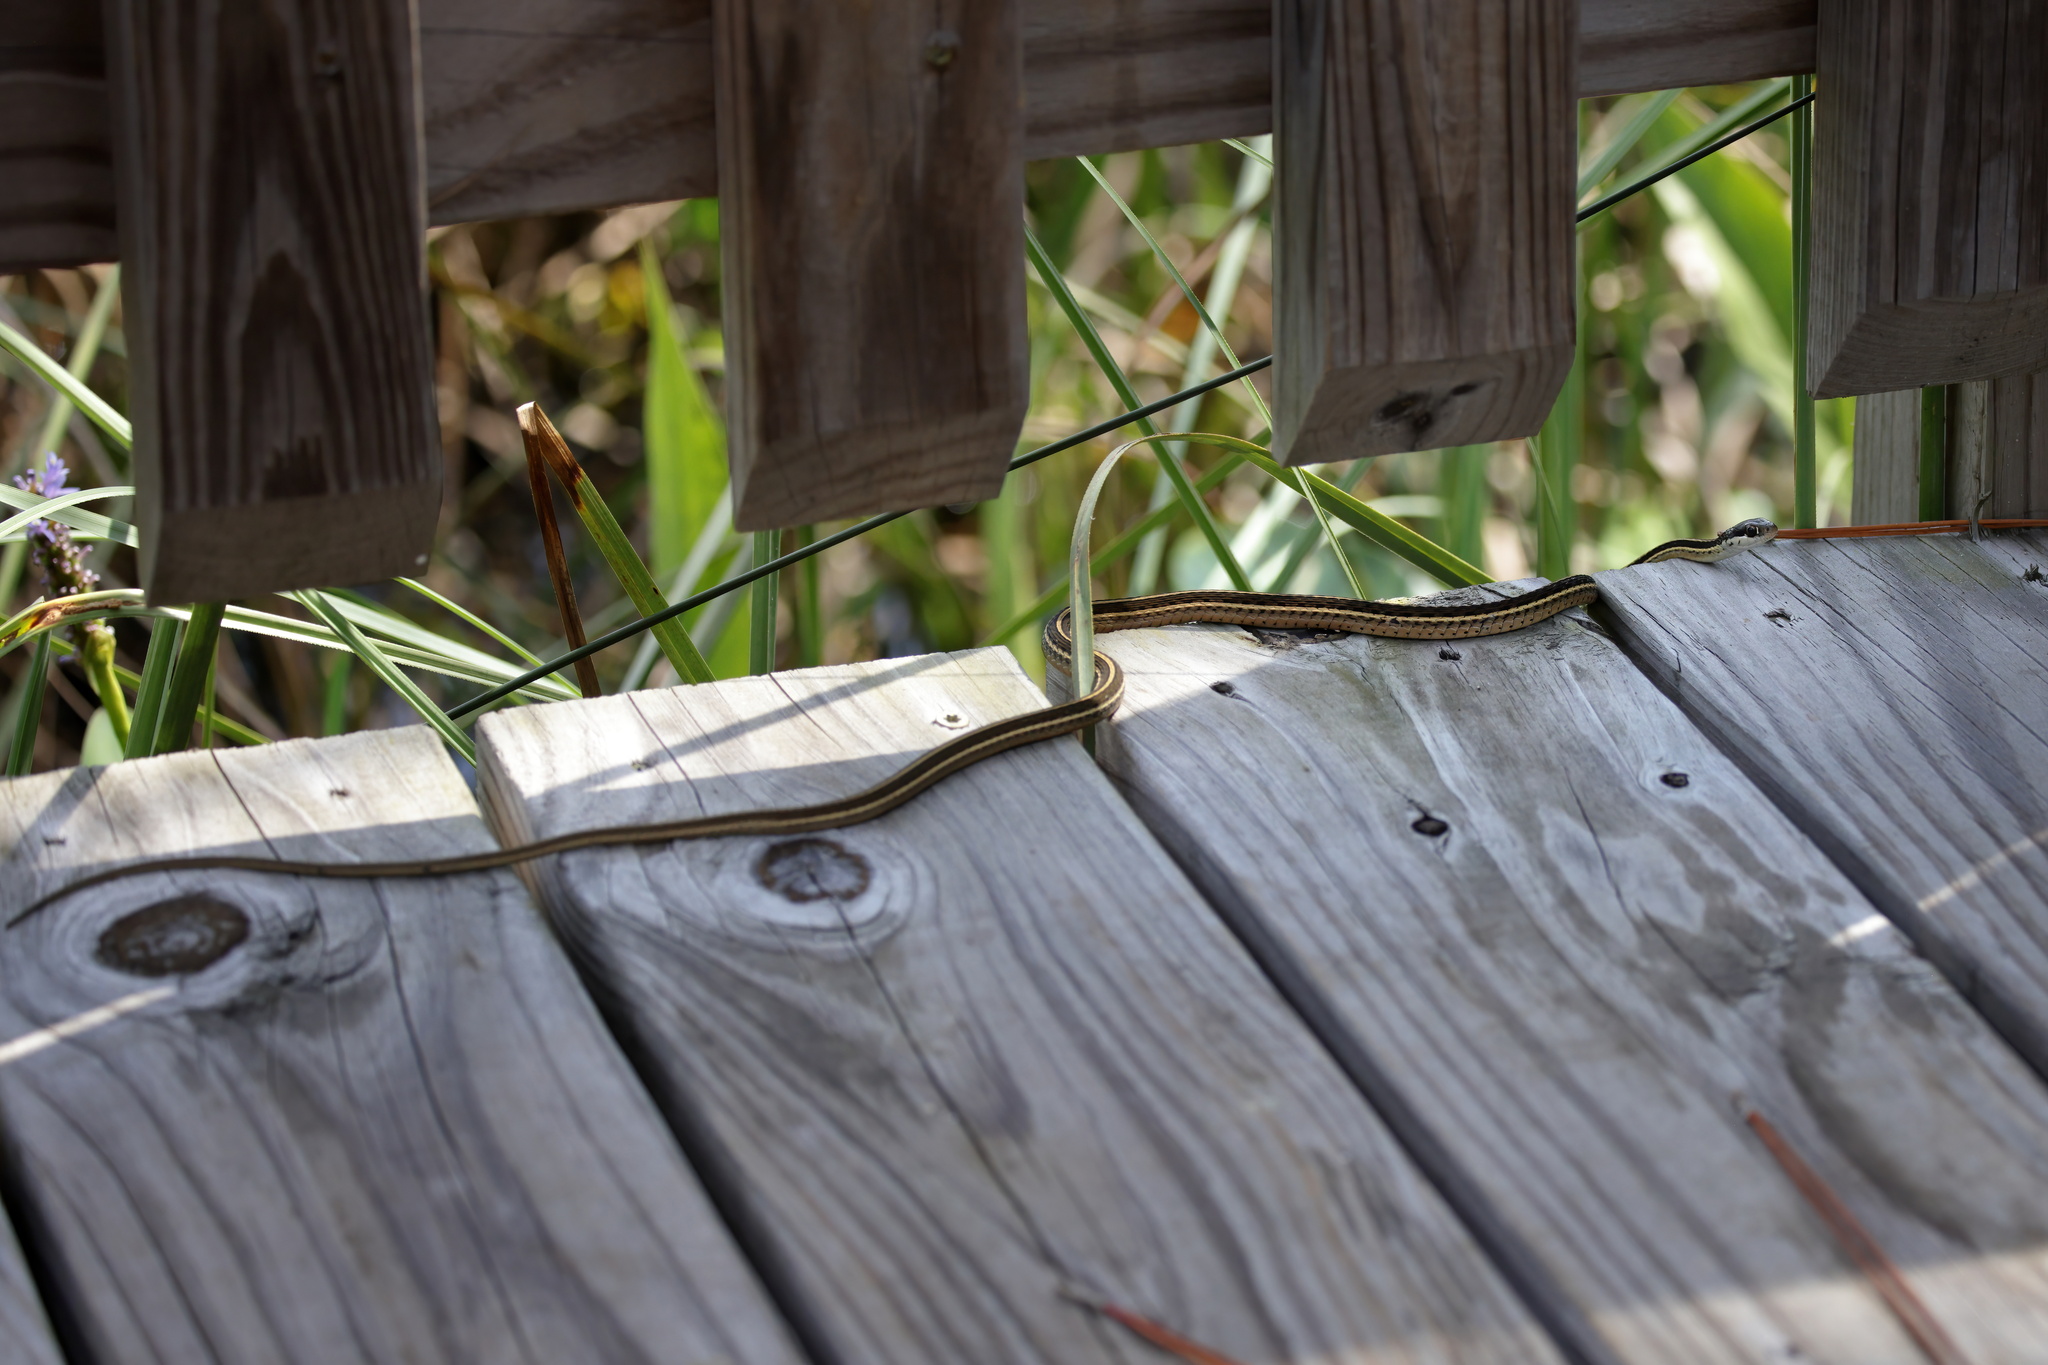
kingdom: Animalia
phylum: Chordata
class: Squamata
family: Colubridae
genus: Thamnophis
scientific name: Thamnophis saurita
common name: Eastern ribbonsnake
